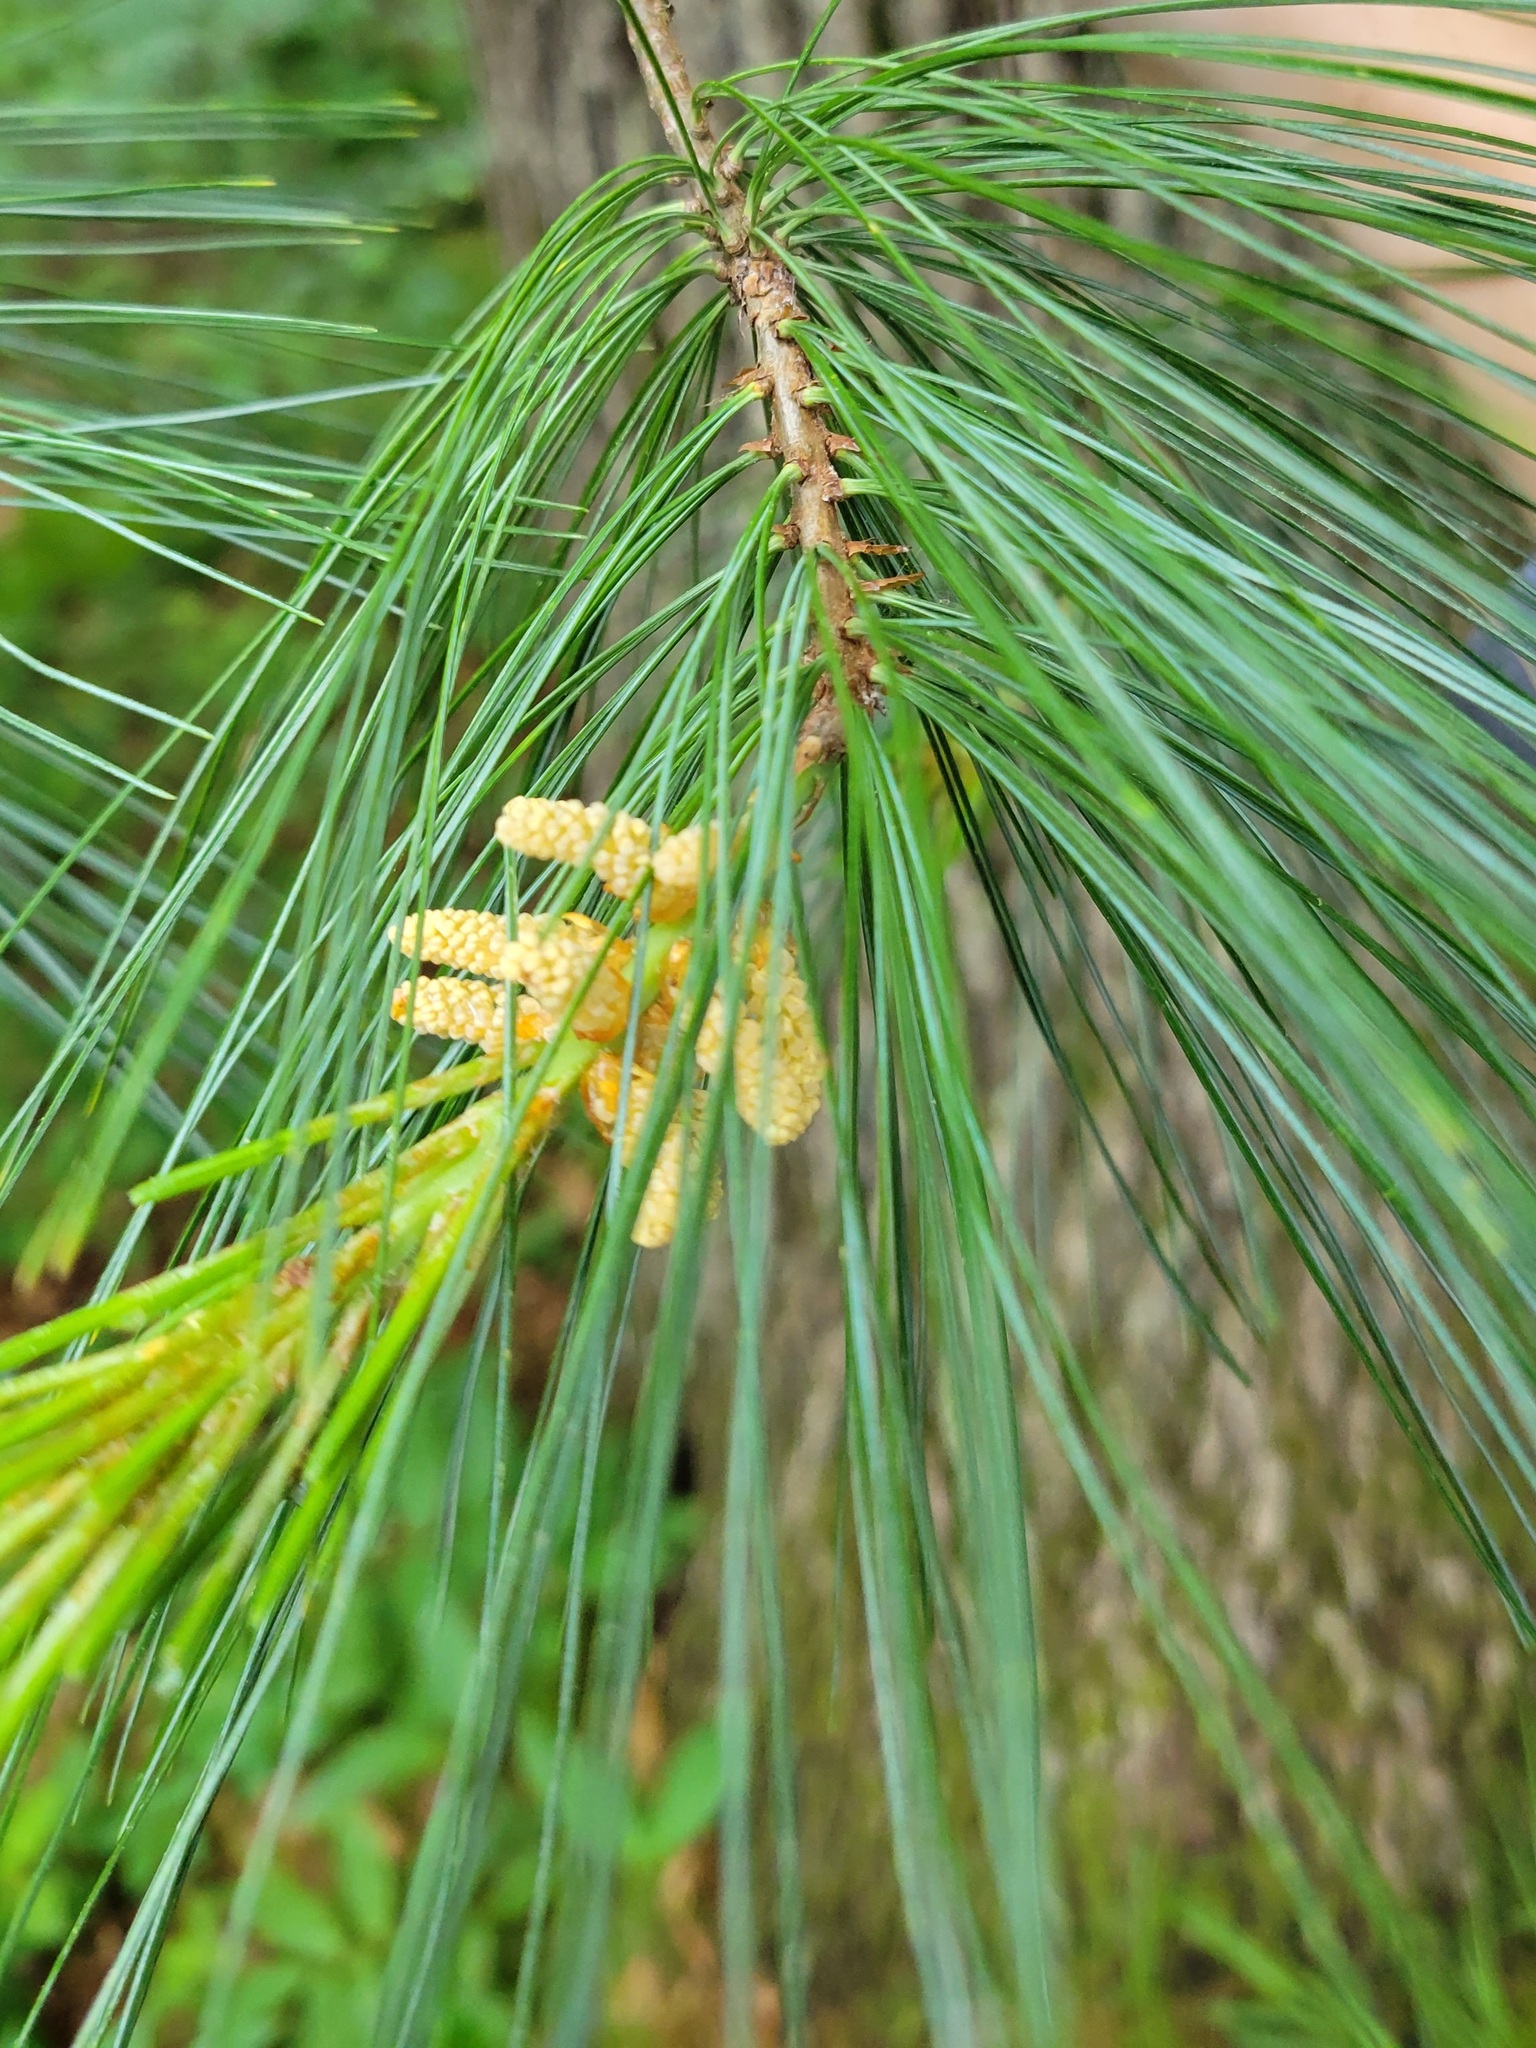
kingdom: Plantae
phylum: Tracheophyta
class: Pinopsida
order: Pinales
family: Pinaceae
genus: Pinus
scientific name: Pinus strobus
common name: Weymouth pine
